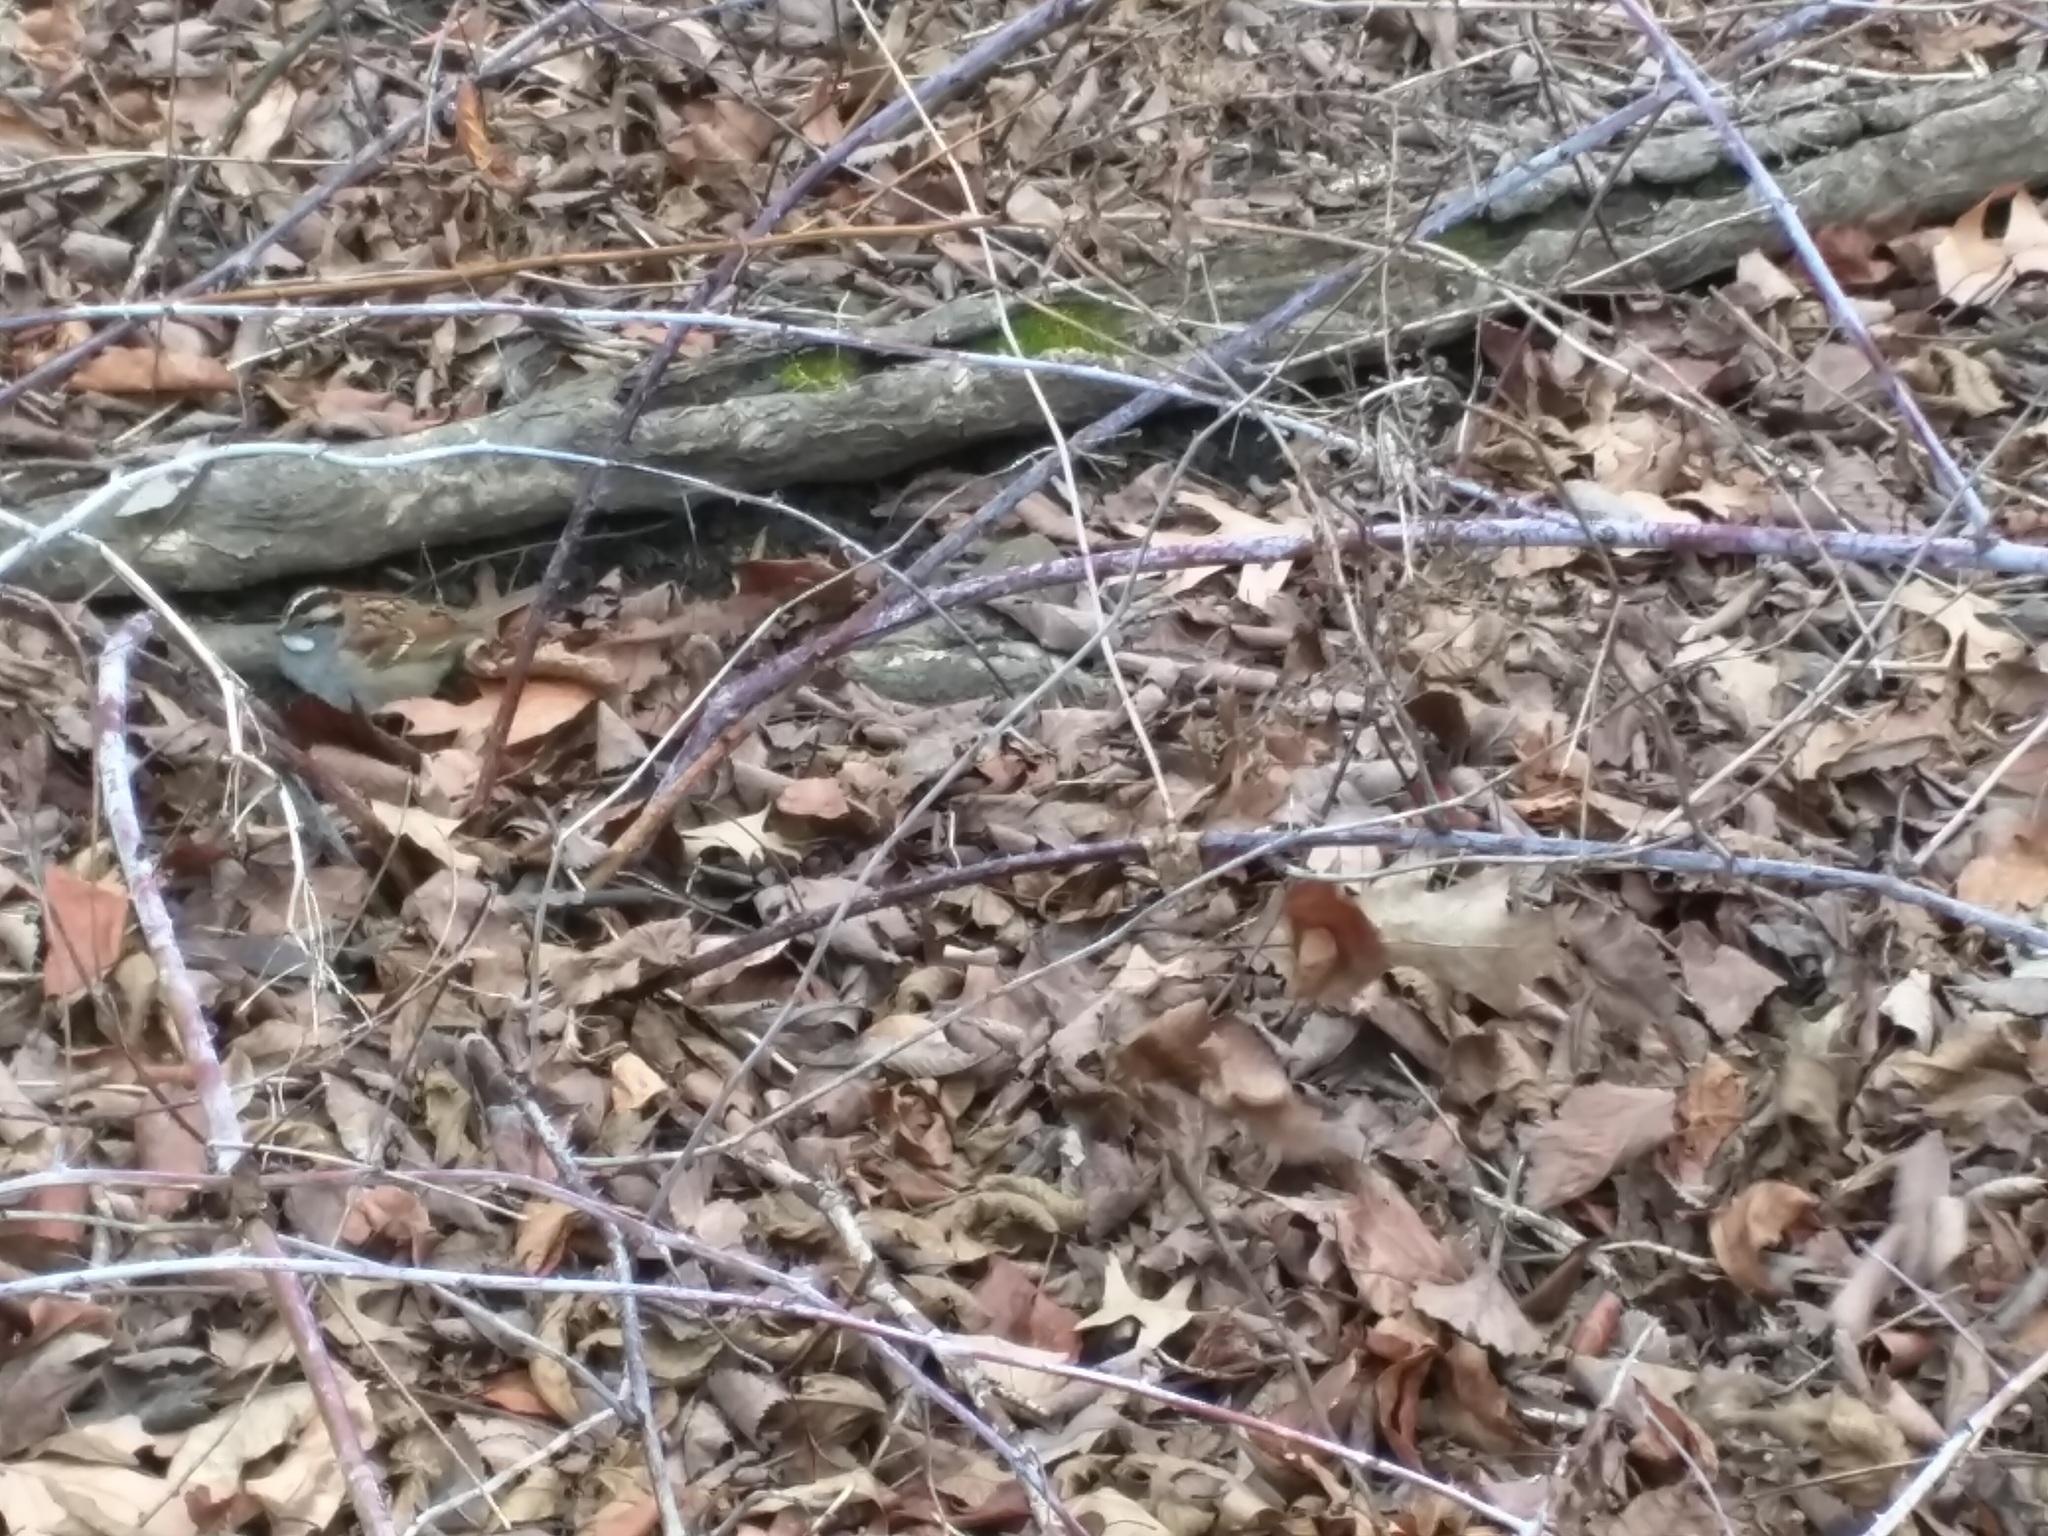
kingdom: Animalia
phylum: Chordata
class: Aves
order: Passeriformes
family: Passerellidae
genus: Zonotrichia
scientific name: Zonotrichia albicollis
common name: White-throated sparrow
